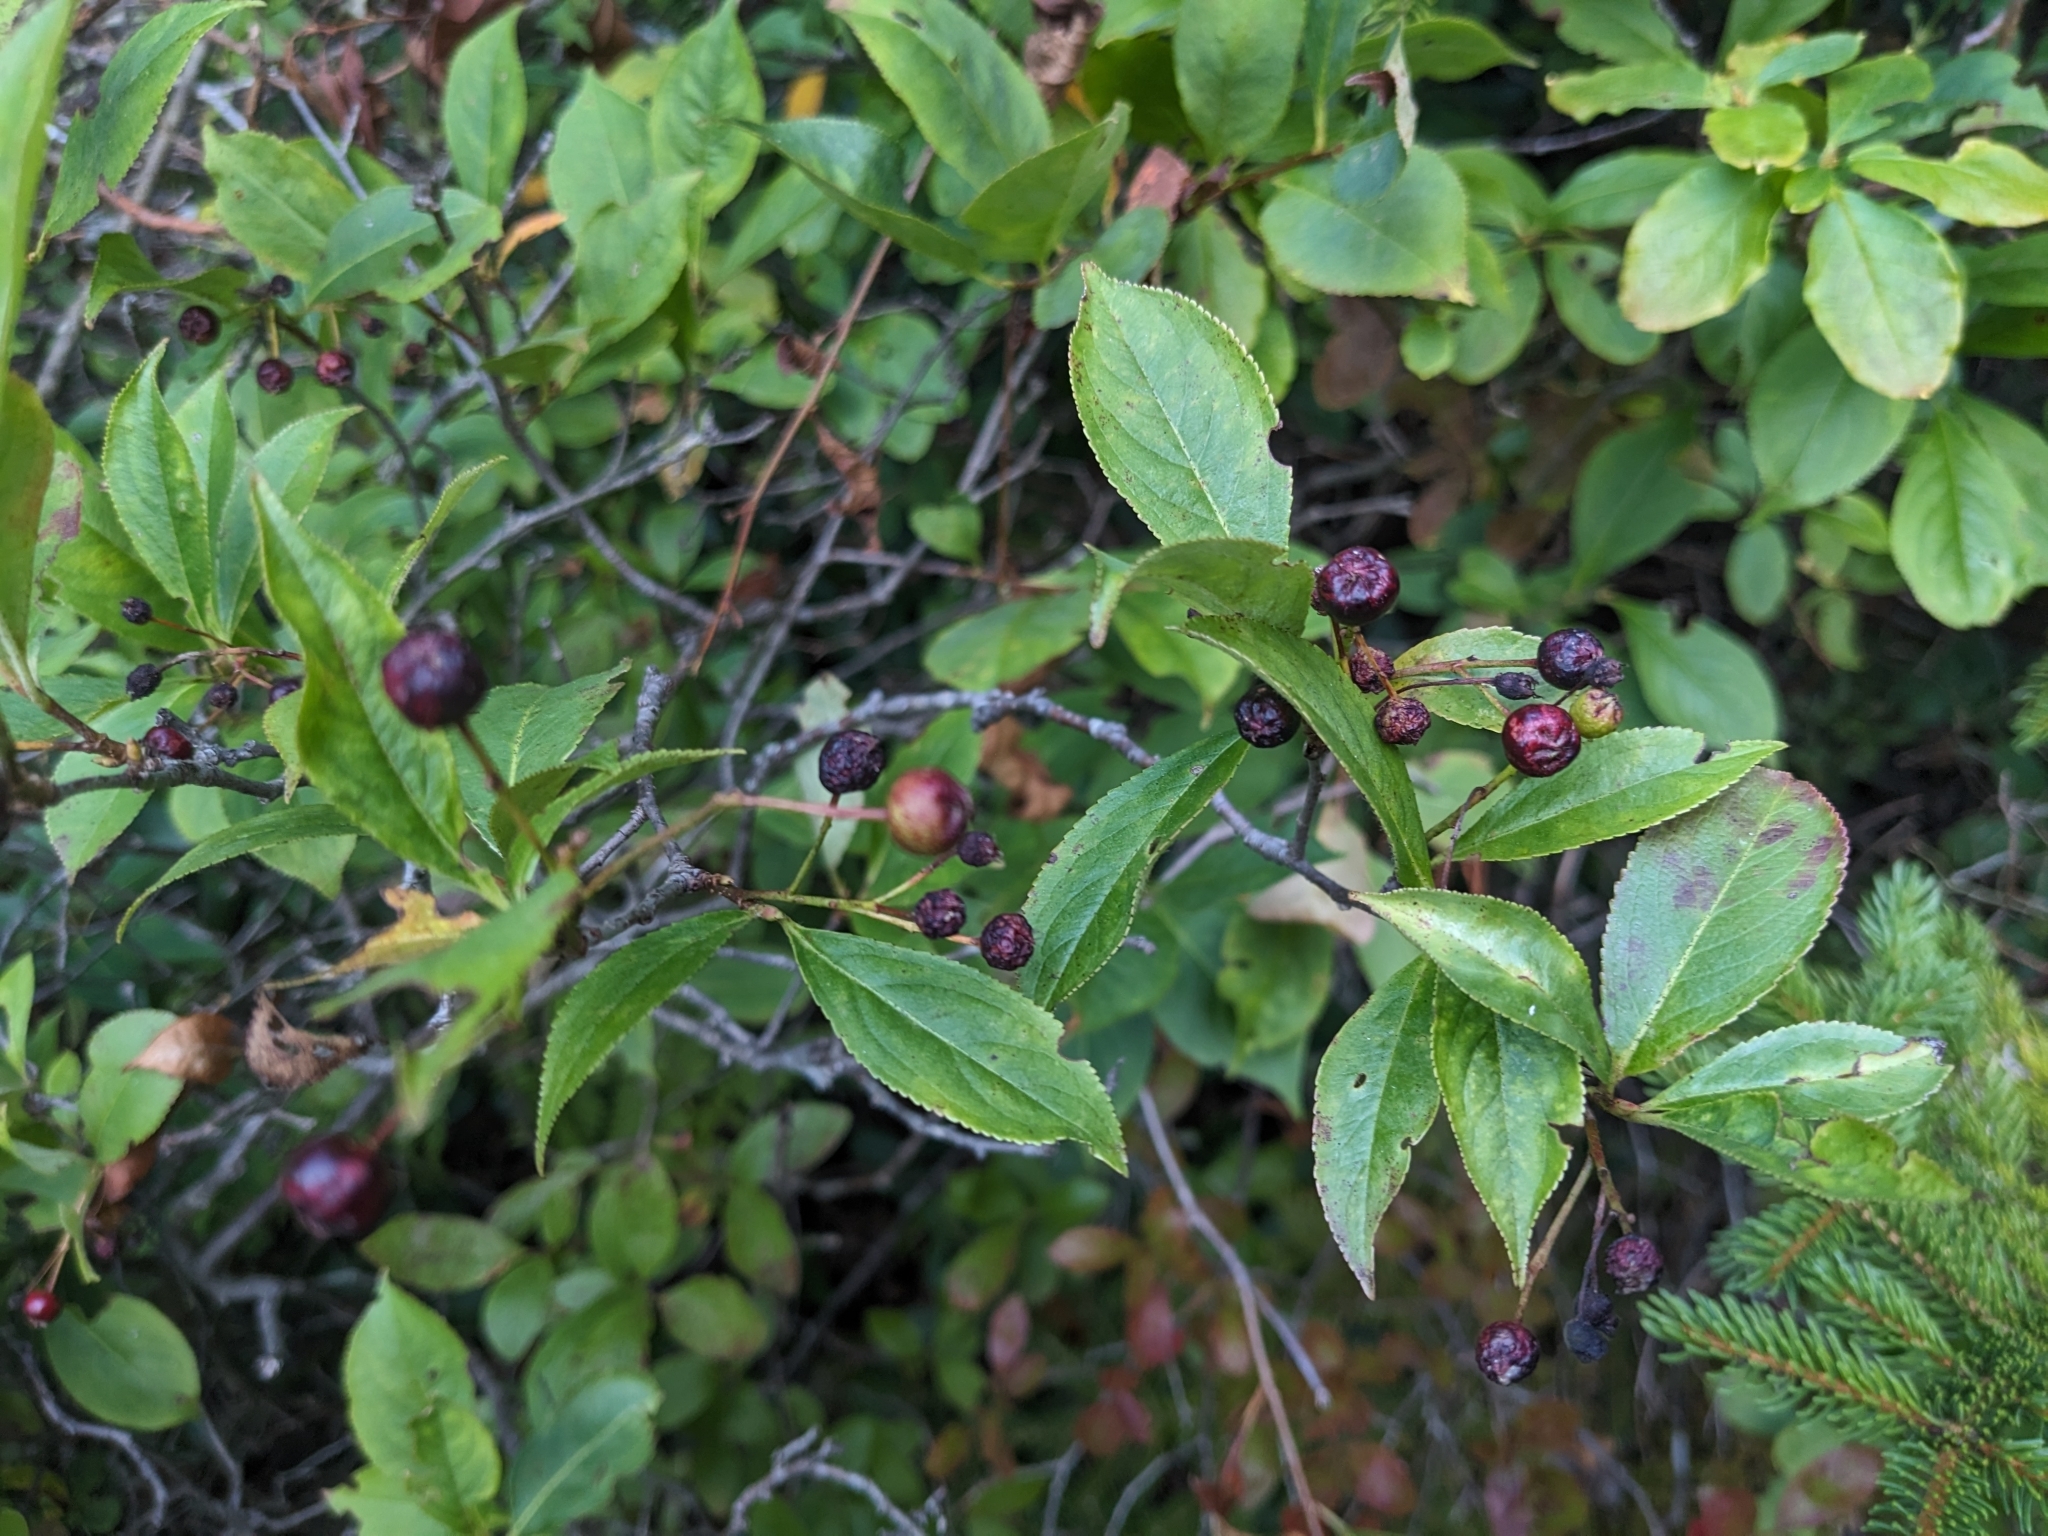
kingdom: Plantae
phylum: Tracheophyta
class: Magnoliopsida
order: Rosales
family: Rosaceae
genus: Aronia
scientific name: Aronia melanocarpa
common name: Black chokeberry
